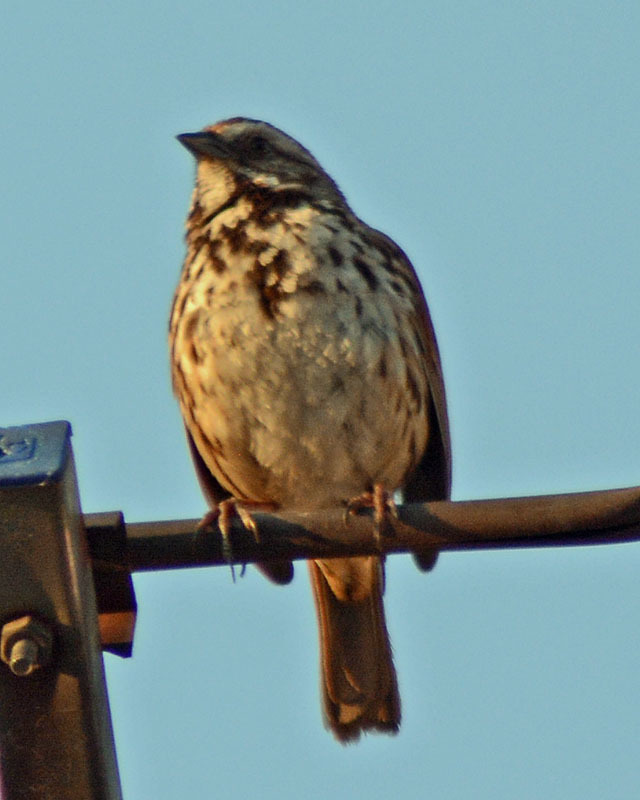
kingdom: Animalia
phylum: Chordata
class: Aves
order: Passeriformes
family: Passerellidae
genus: Melospiza
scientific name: Melospiza melodia
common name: Song sparrow
